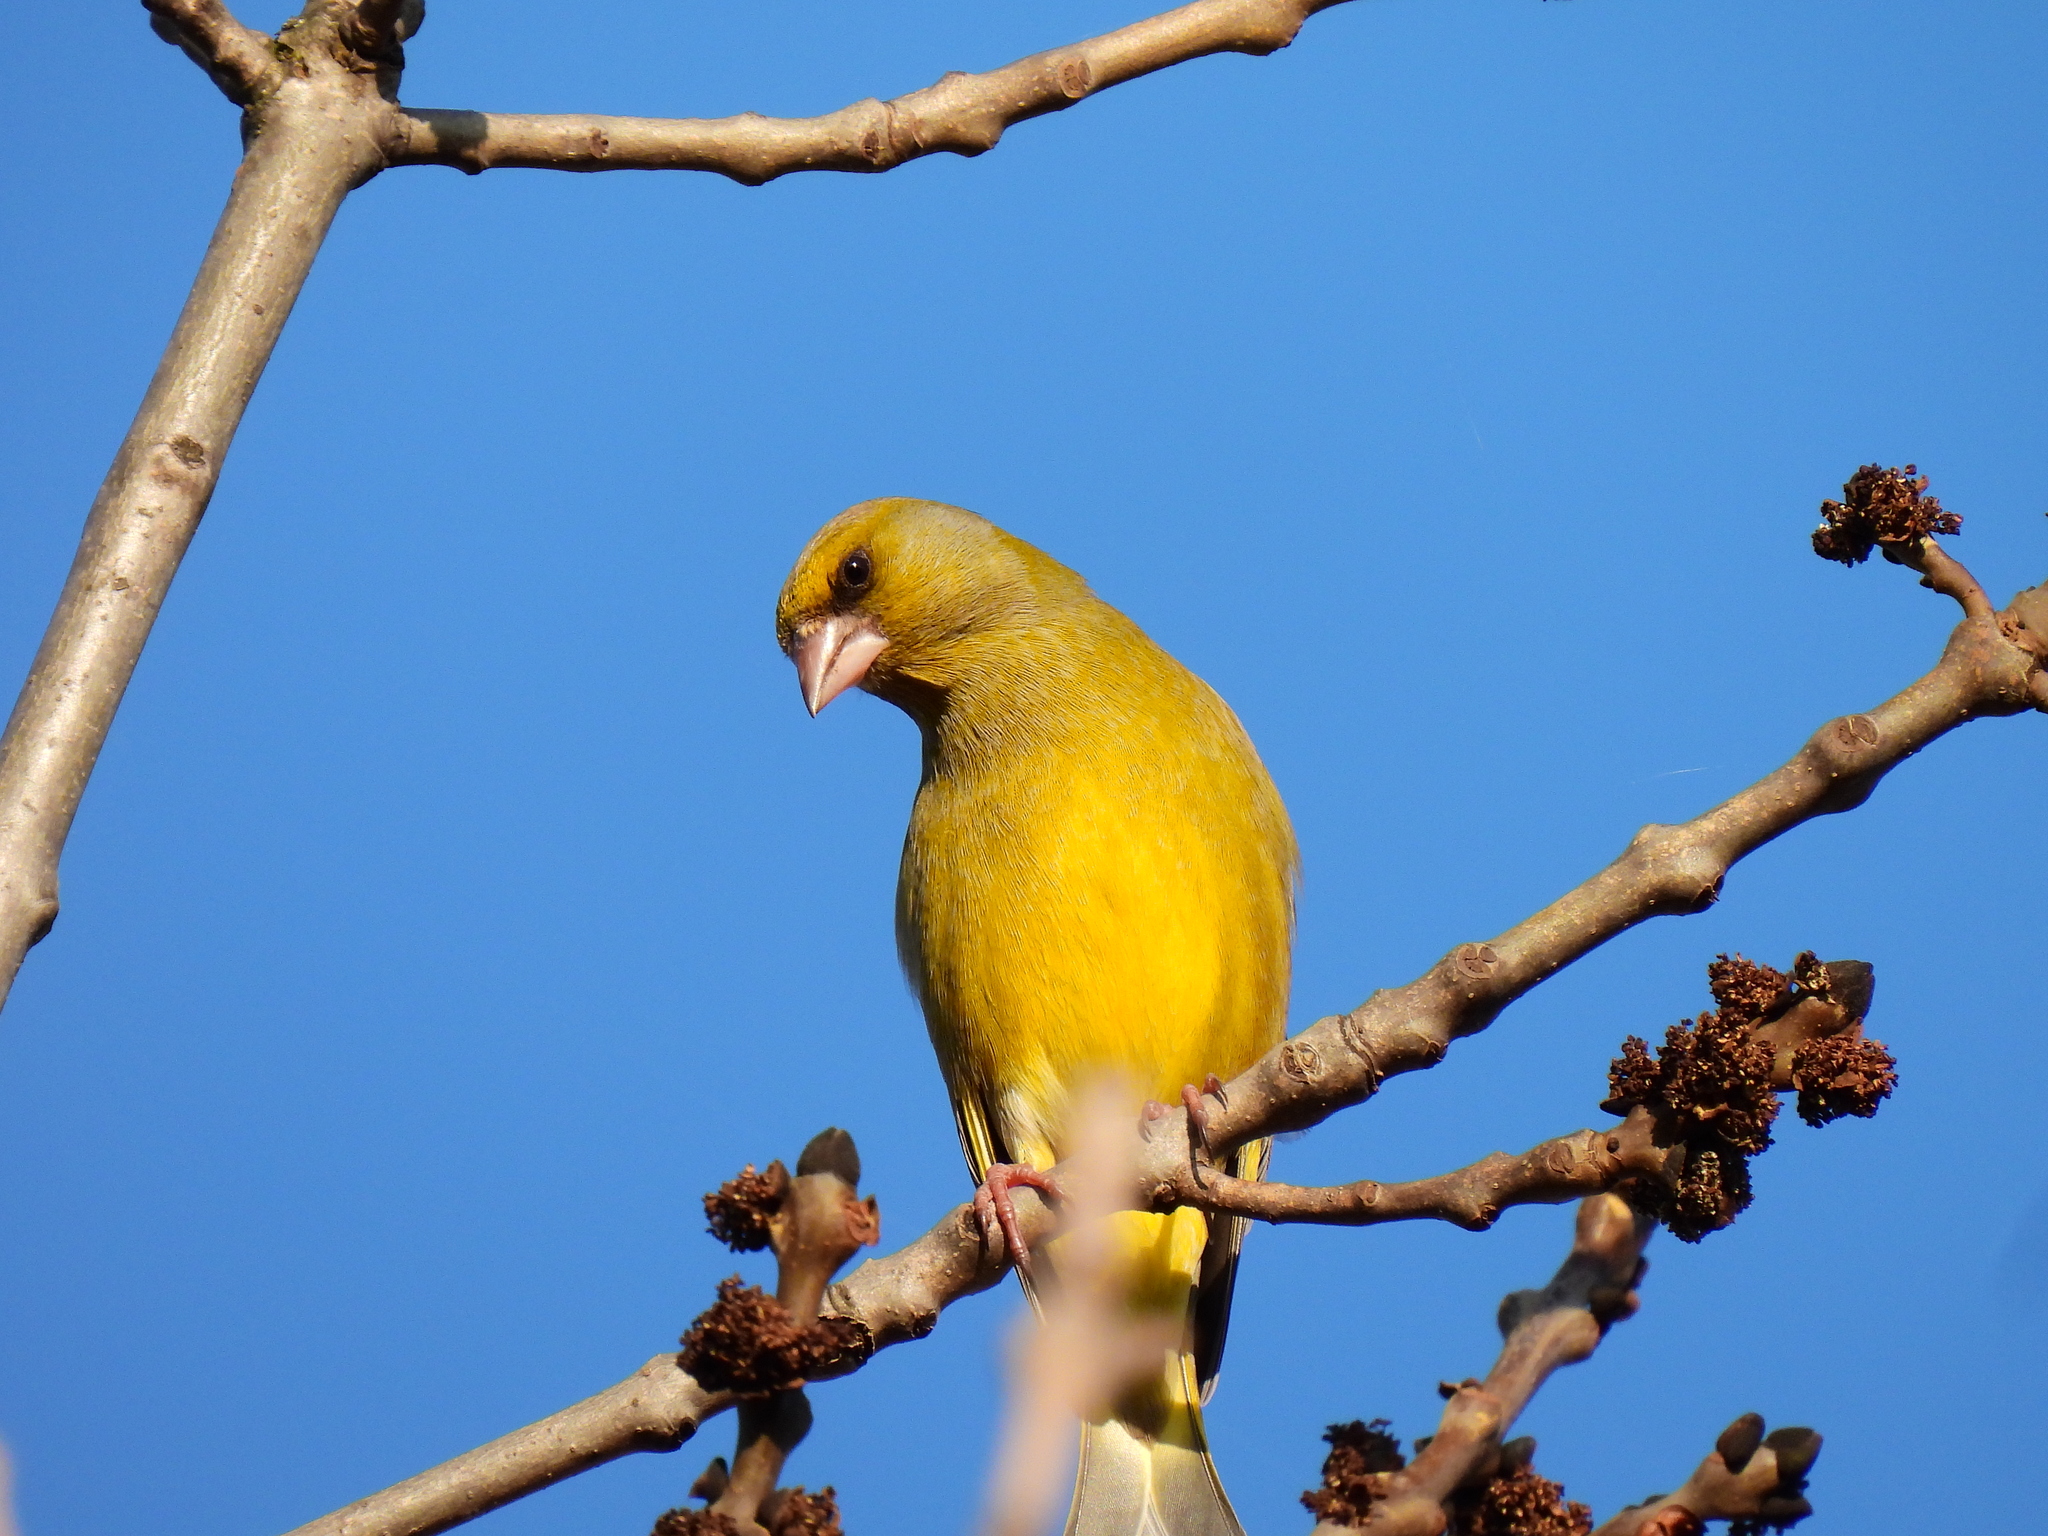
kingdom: Plantae
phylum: Tracheophyta
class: Liliopsida
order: Poales
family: Poaceae
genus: Chloris
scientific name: Chloris chloris
